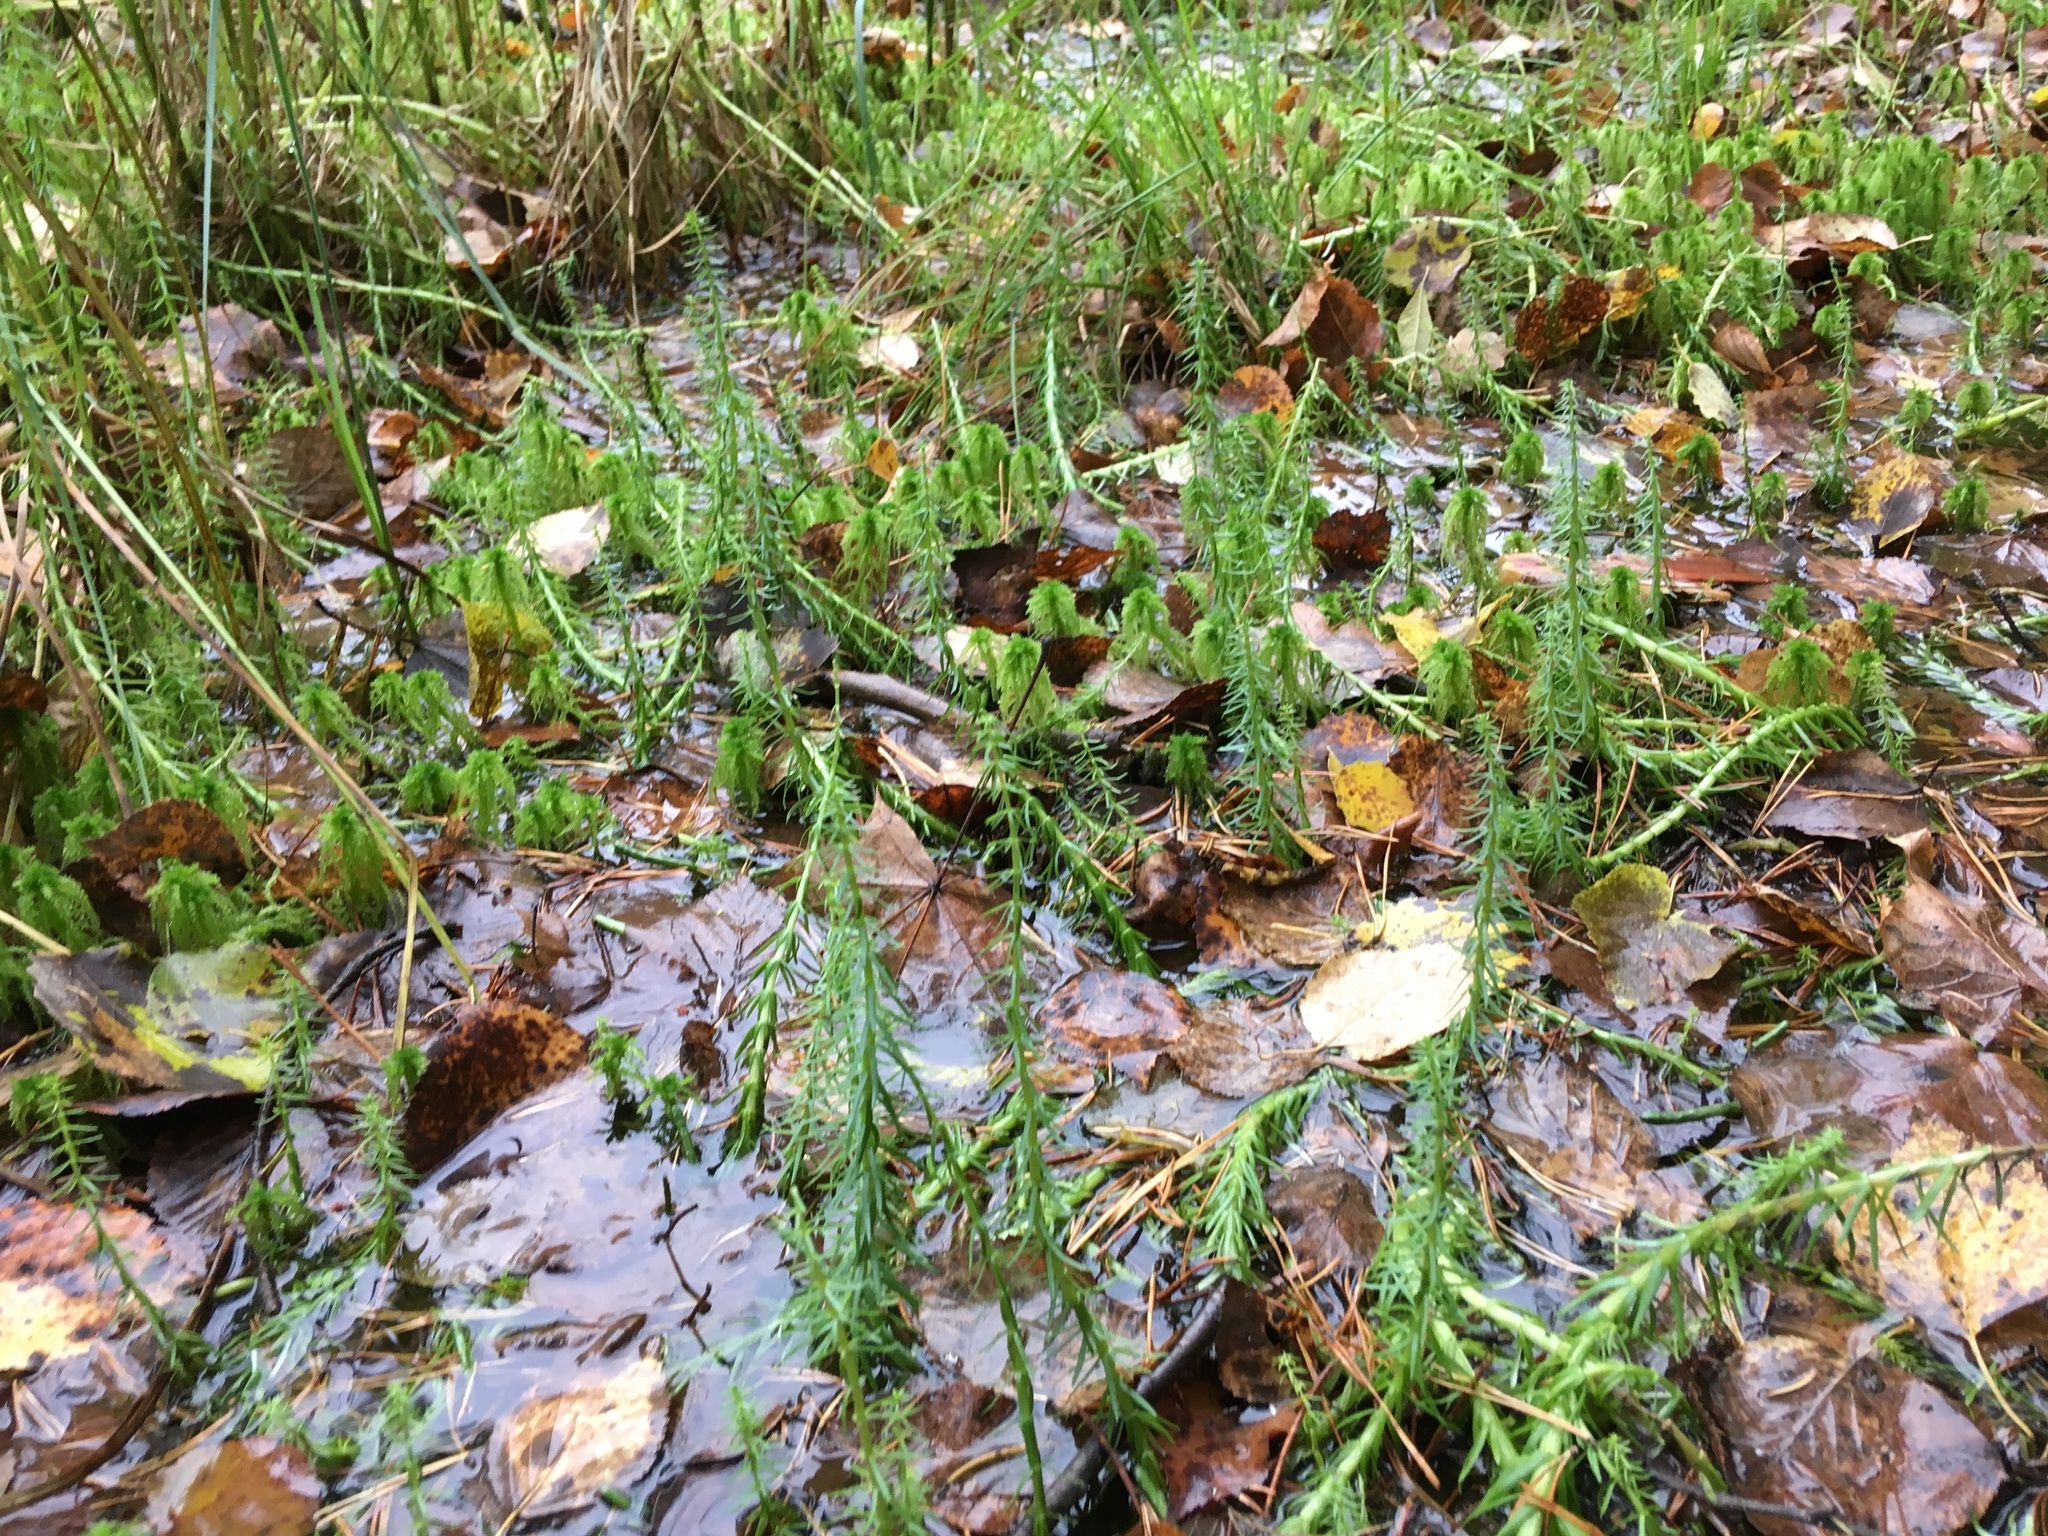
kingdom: Plantae
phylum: Tracheophyta
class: Magnoliopsida
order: Lamiales
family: Plantaginaceae
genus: Hippuris
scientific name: Hippuris vulgaris
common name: Mare's-tail
